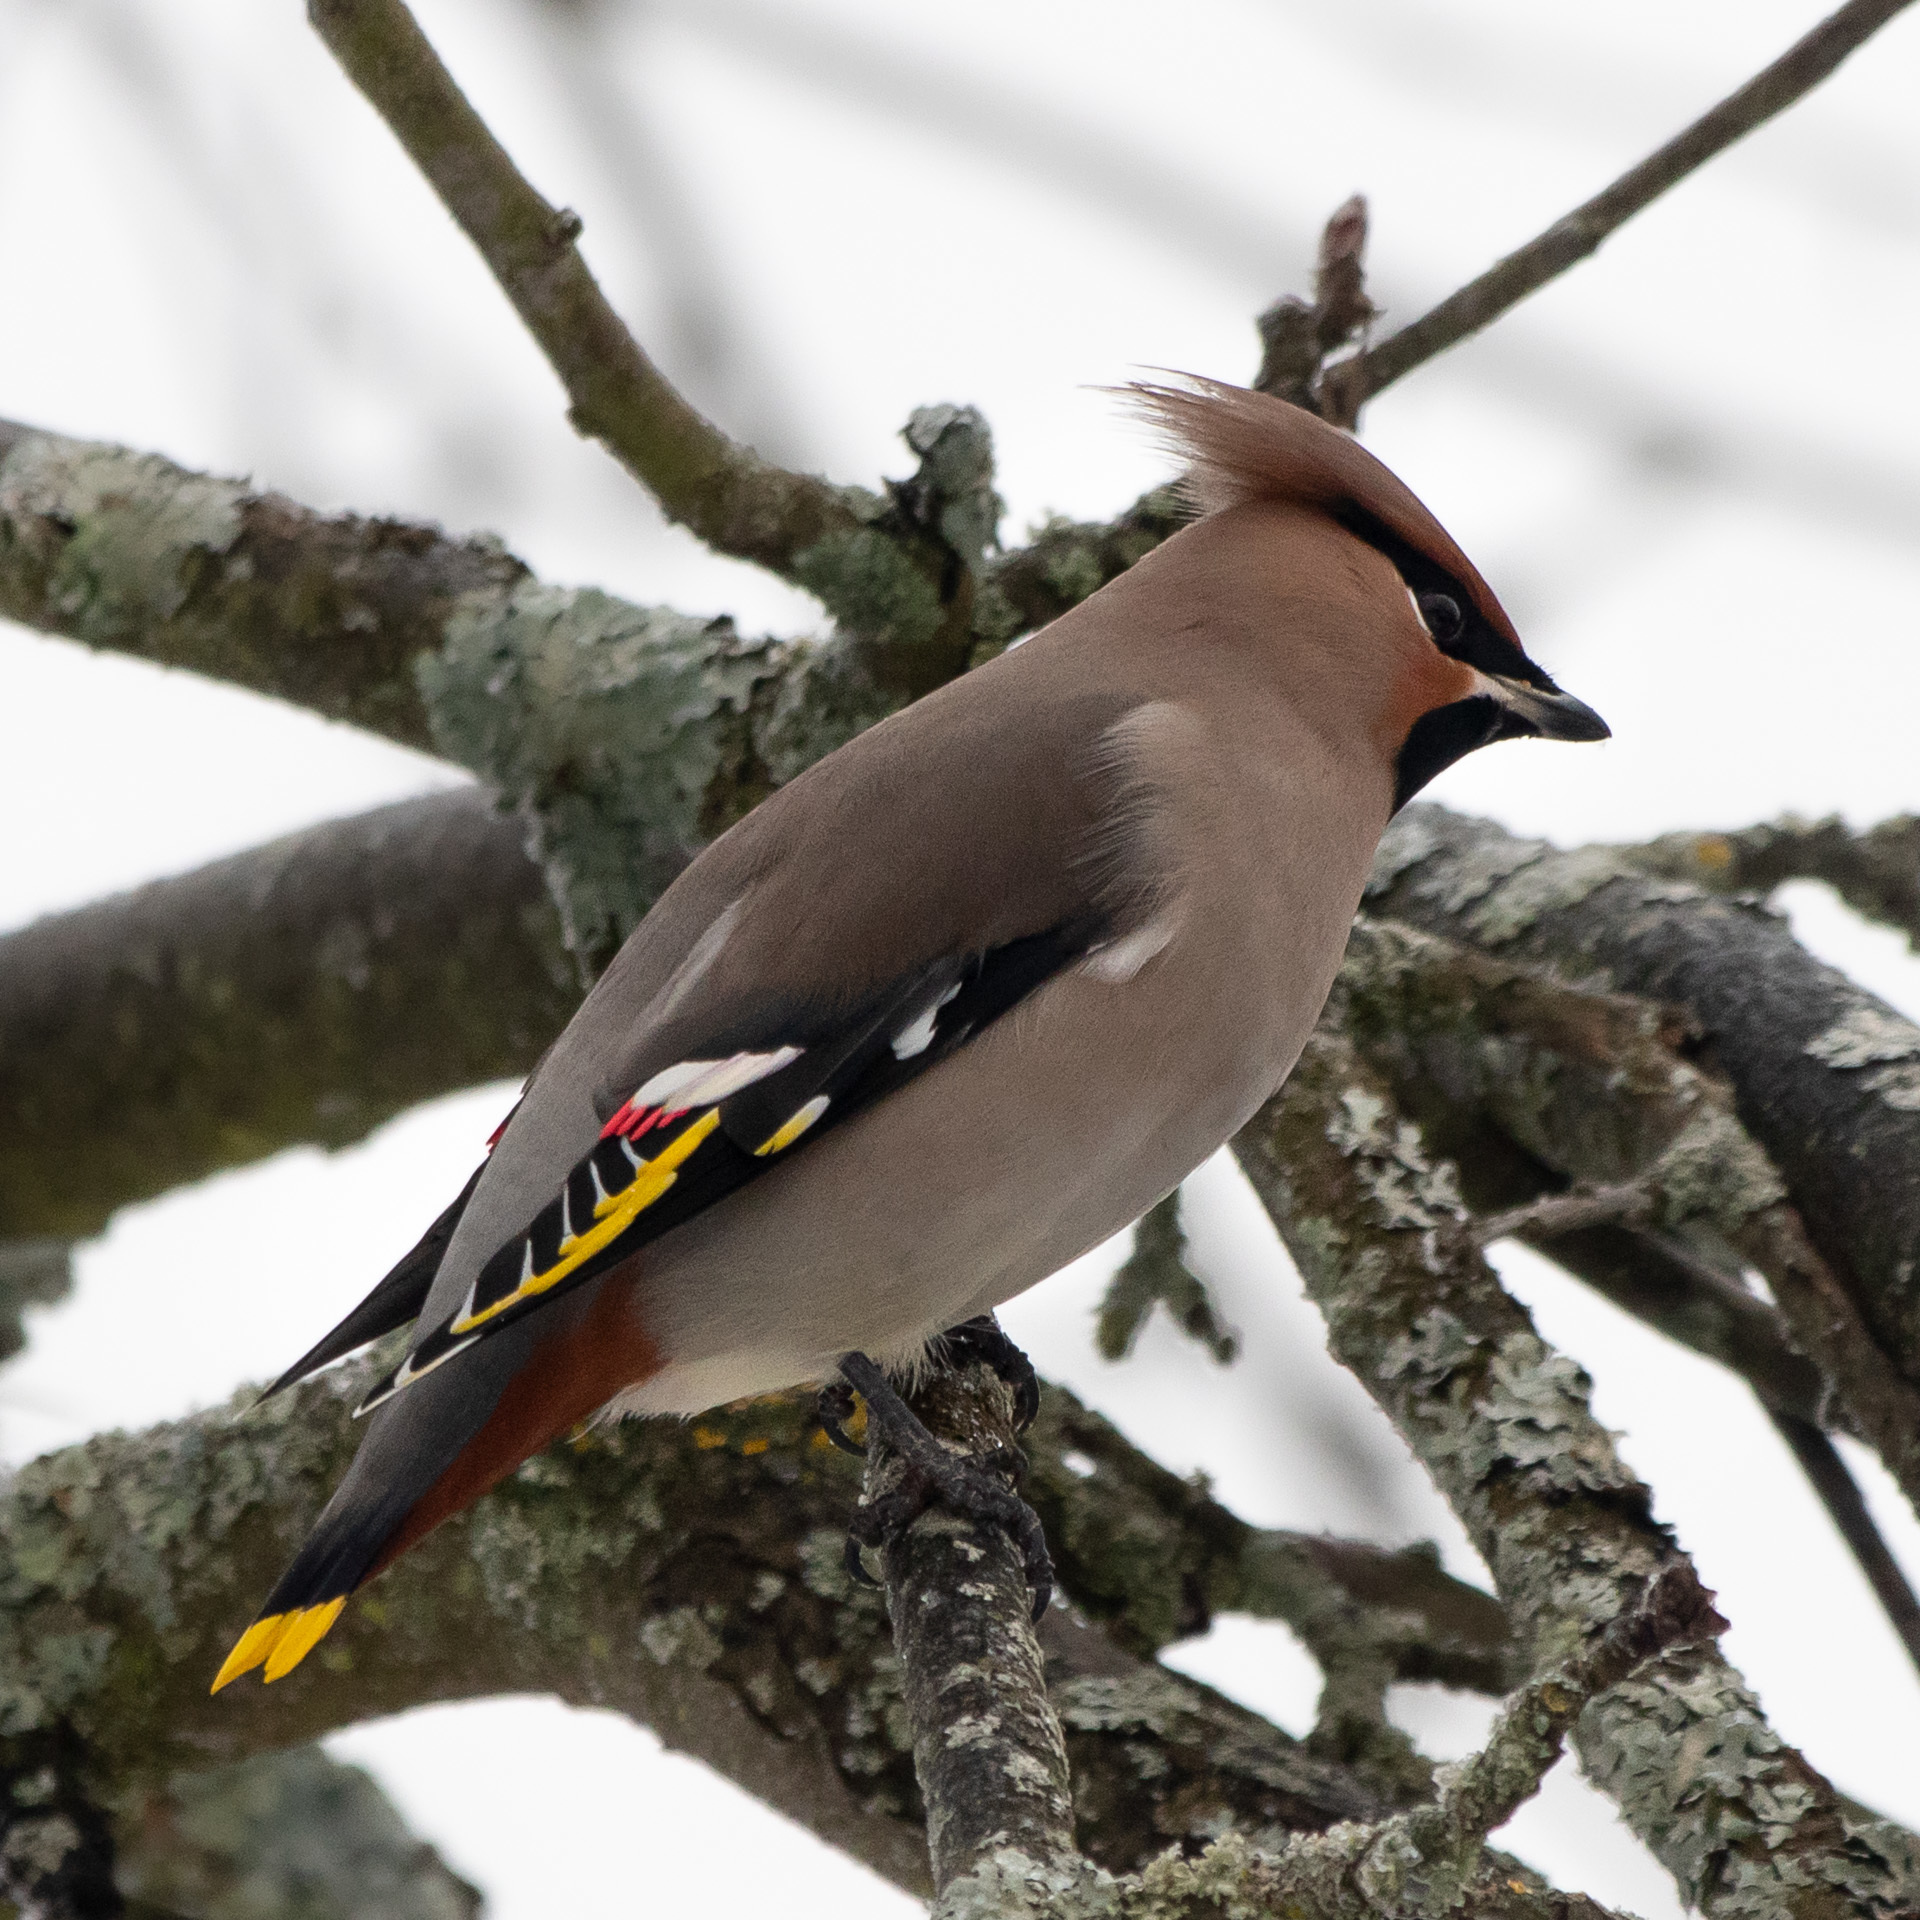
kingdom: Animalia
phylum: Chordata
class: Aves
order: Passeriformes
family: Bombycillidae
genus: Bombycilla
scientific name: Bombycilla garrulus
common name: Bohemian waxwing
